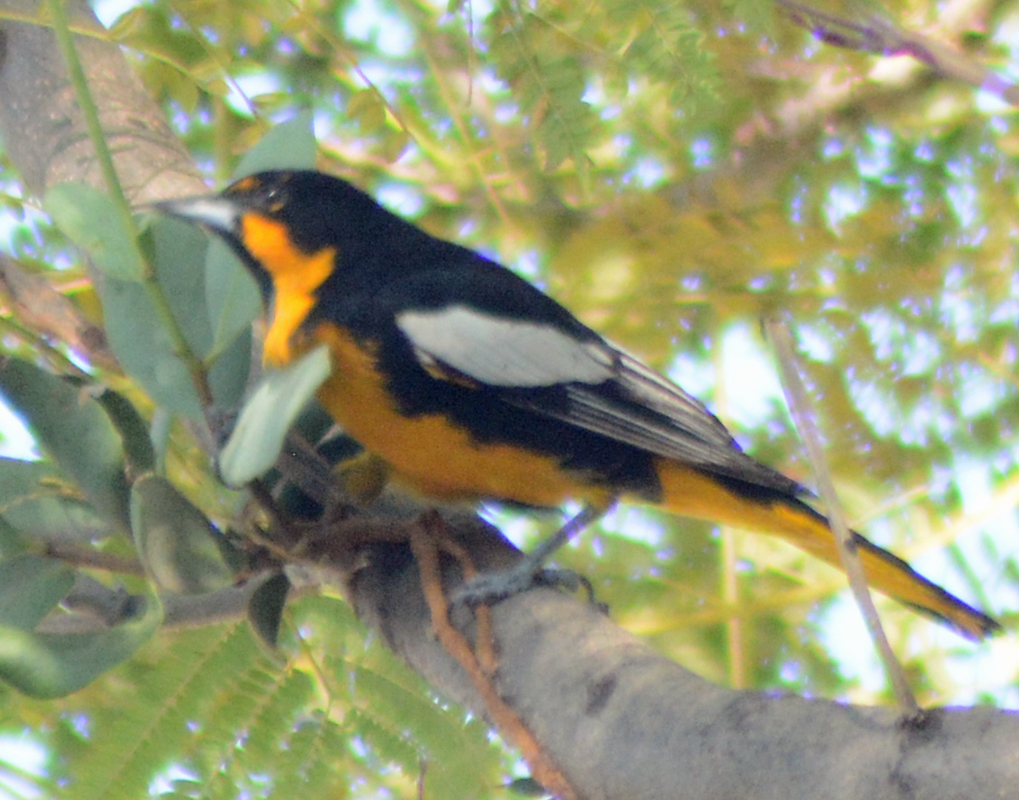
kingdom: Animalia
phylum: Chordata
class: Aves
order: Passeriformes
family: Icteridae
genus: Icterus
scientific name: Icterus abeillei
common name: Black-backed oriole
